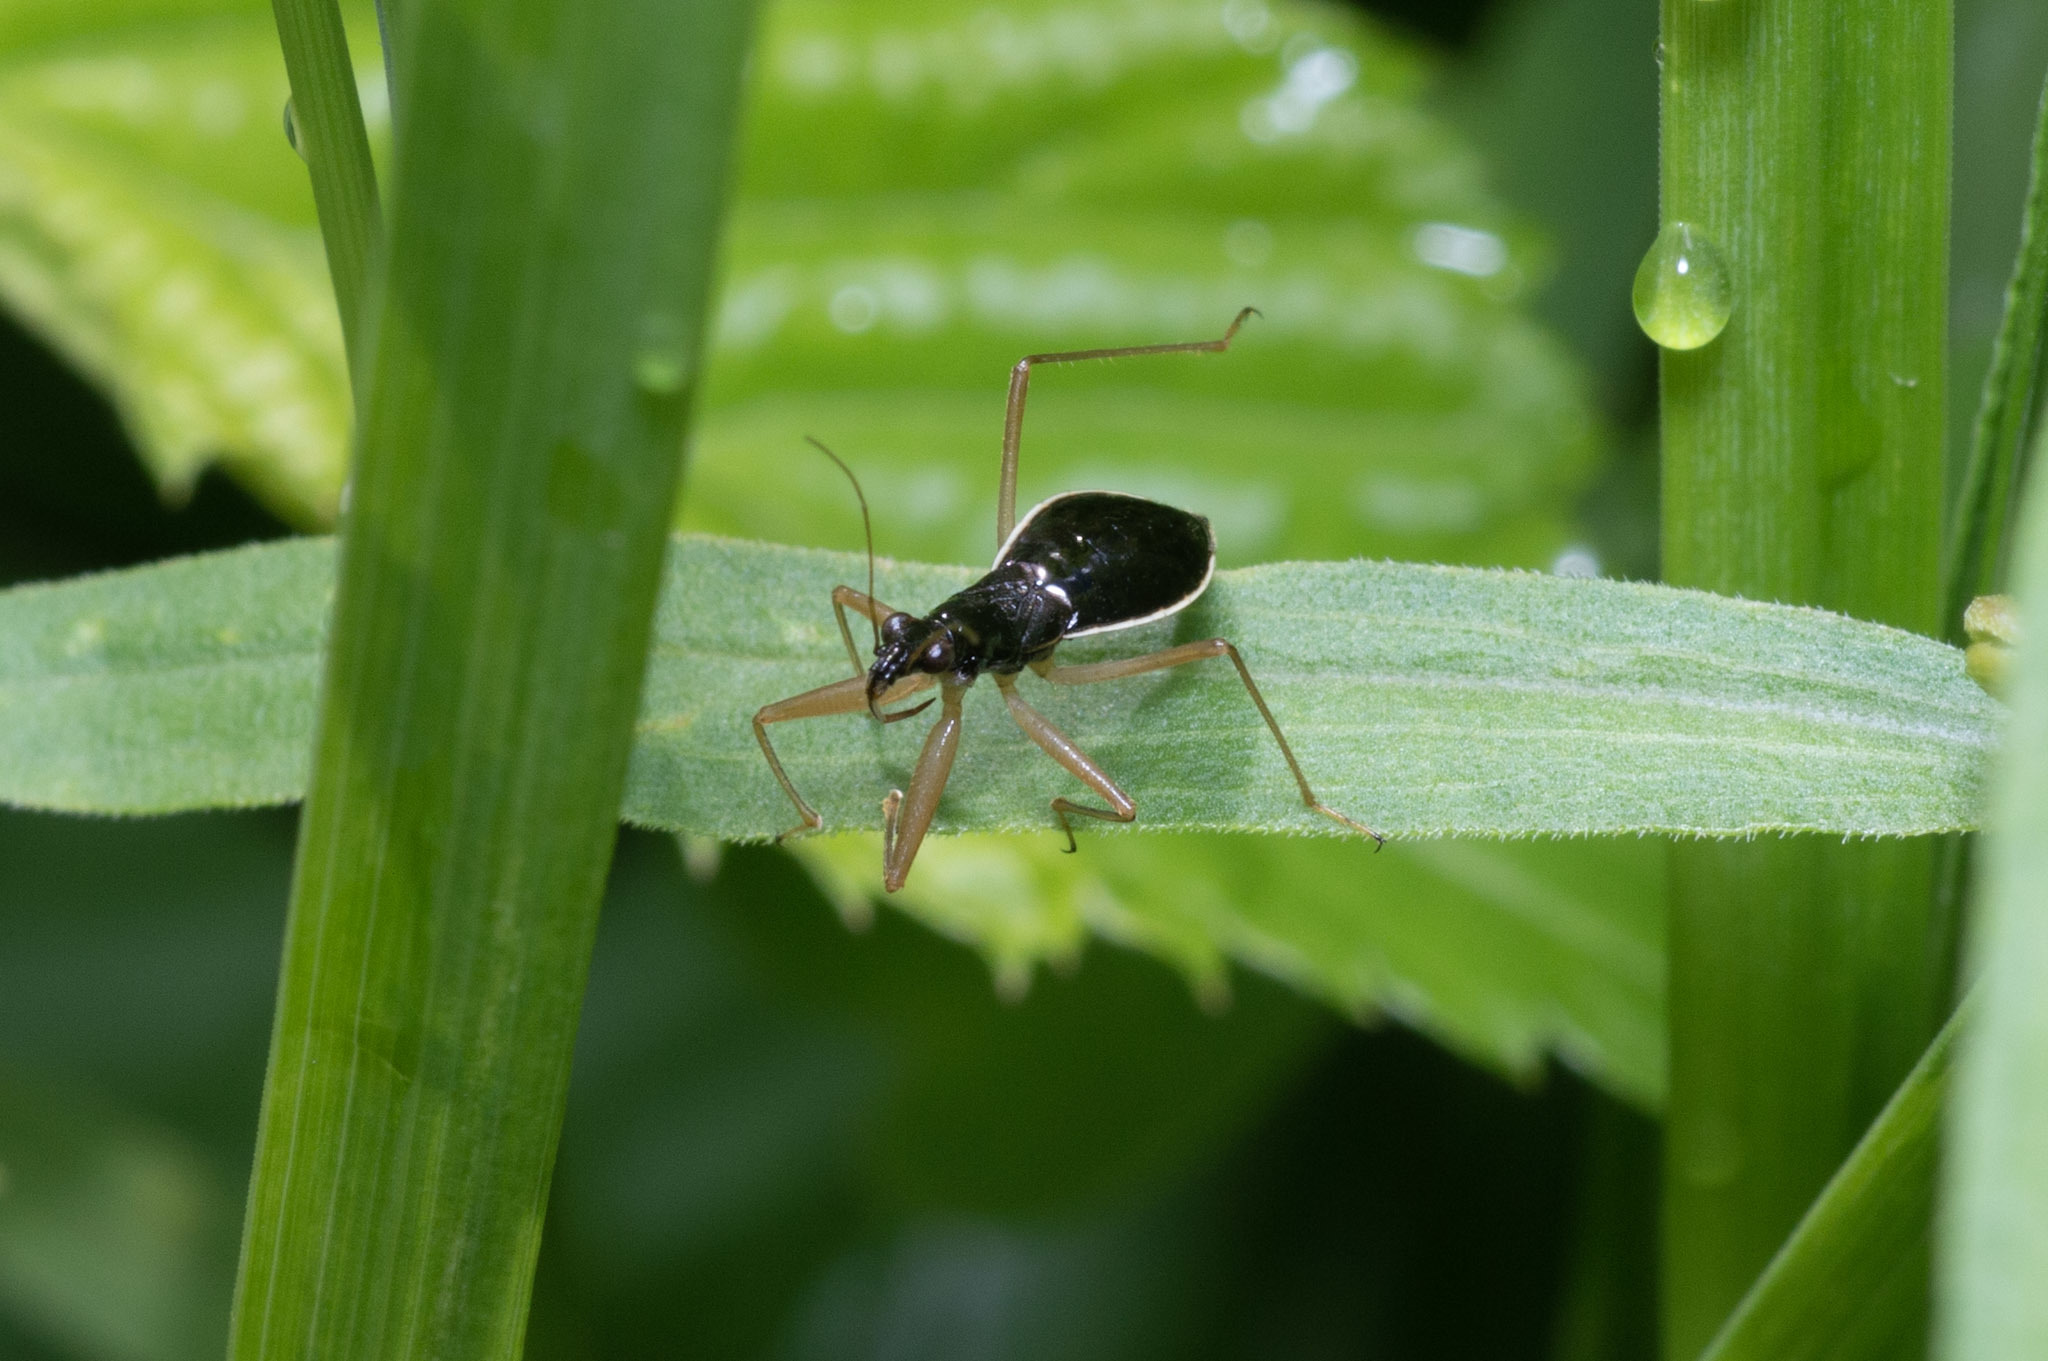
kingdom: Animalia
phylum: Arthropoda
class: Insecta
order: Hemiptera
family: Nabidae
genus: Nabis
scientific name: Nabis
